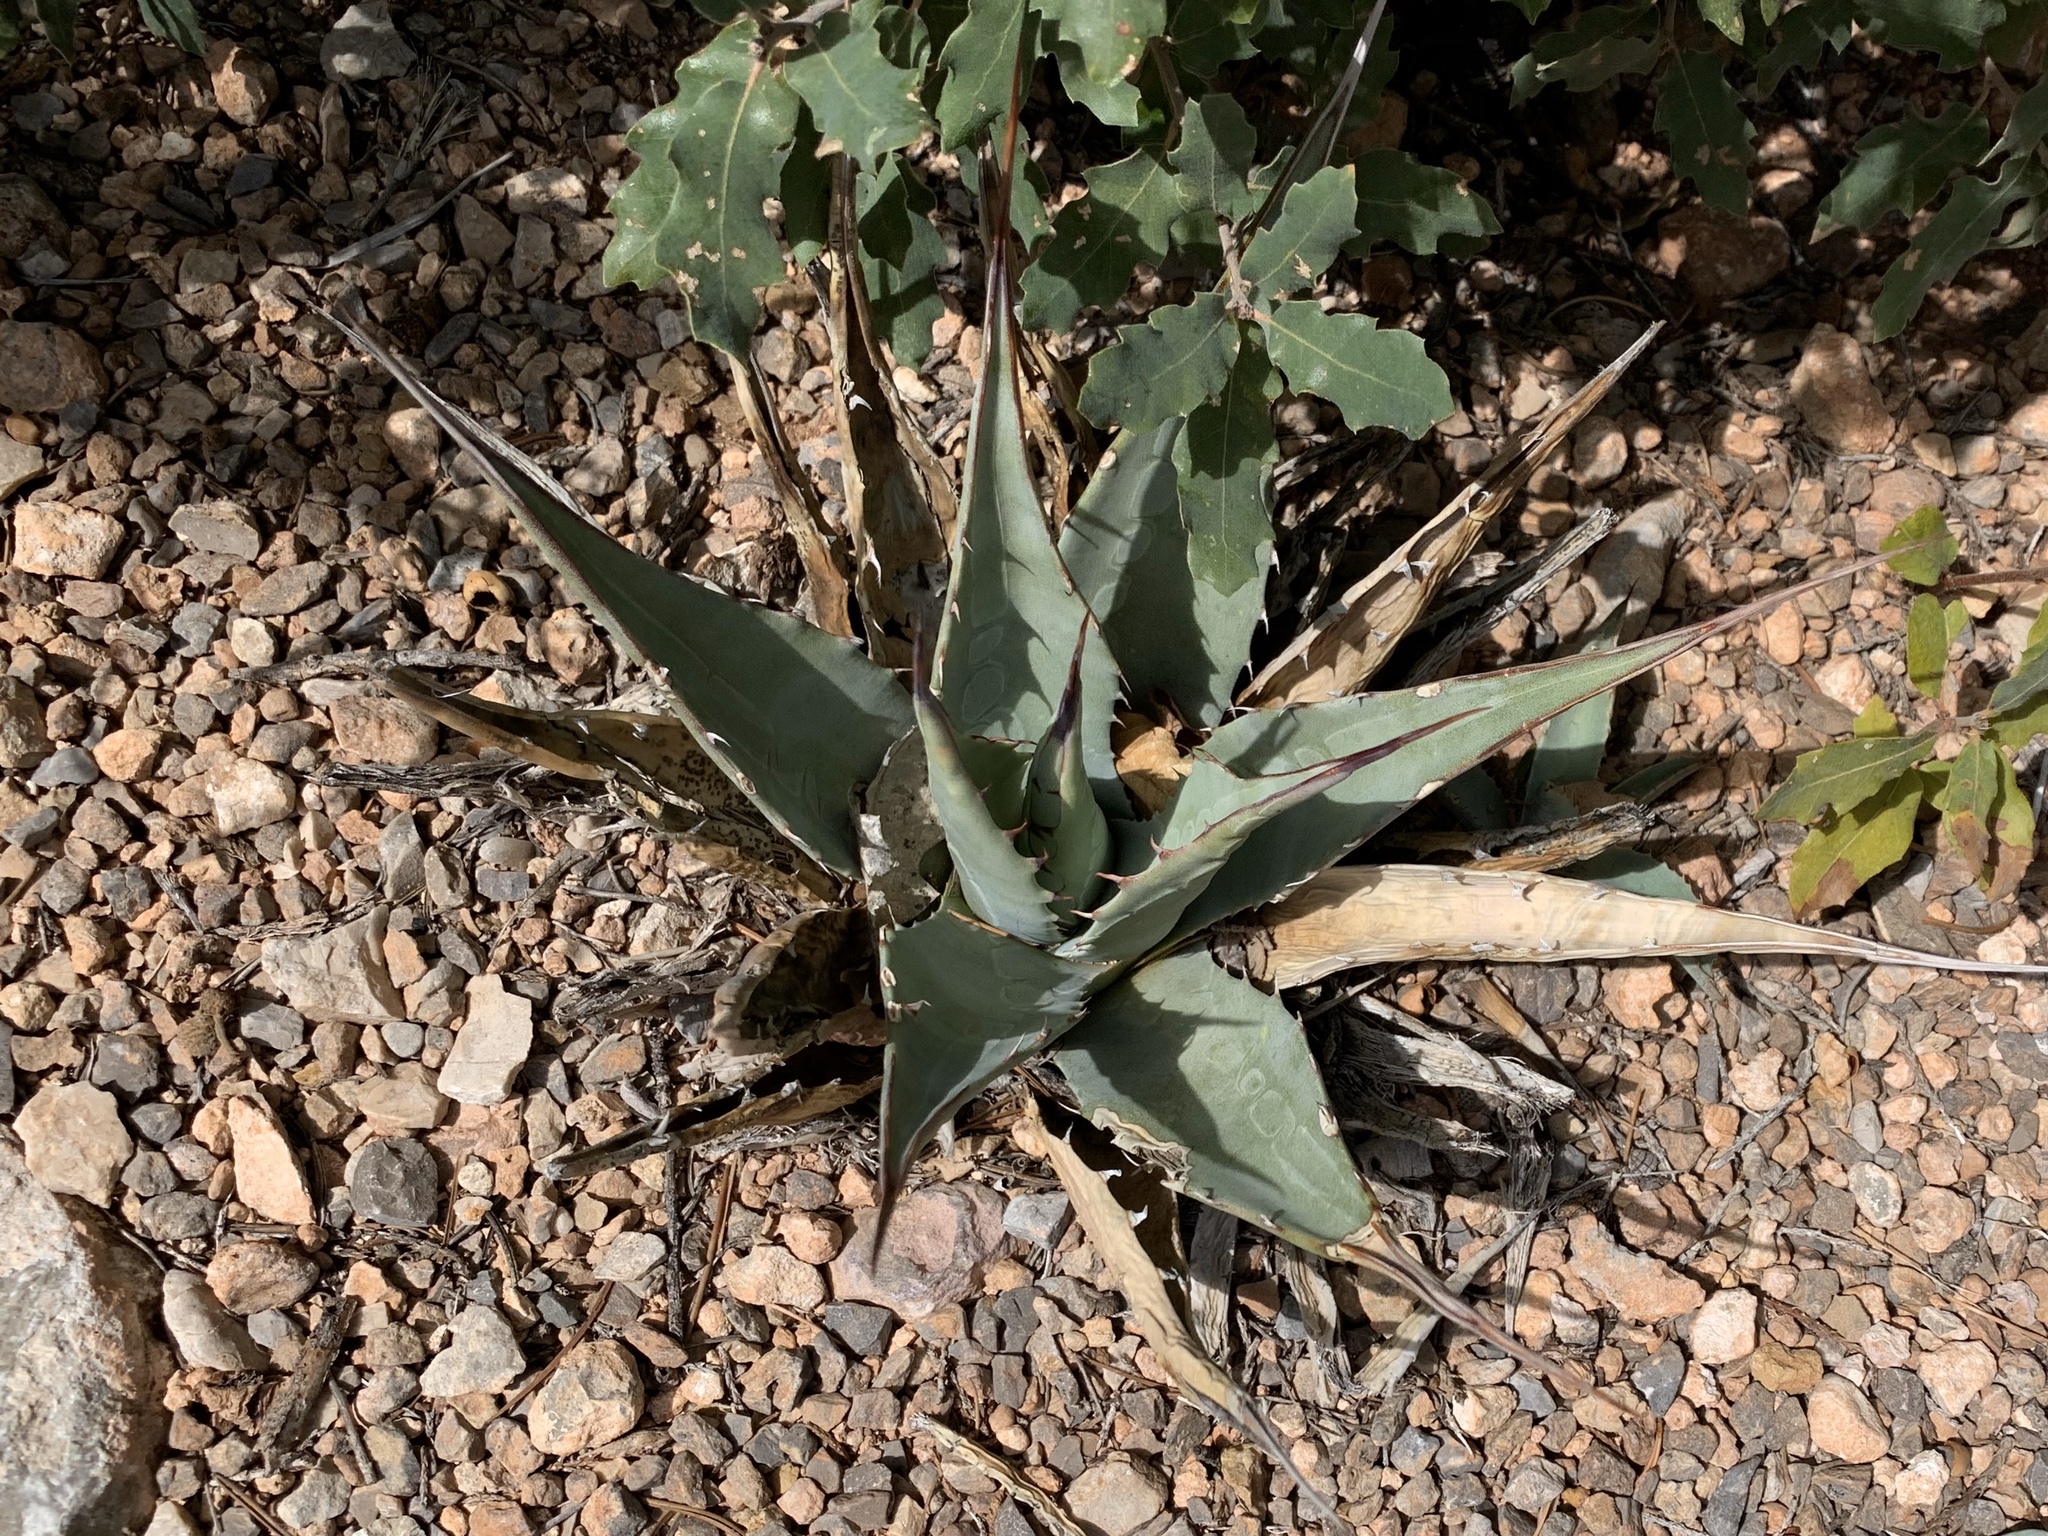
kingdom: Plantae
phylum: Tracheophyta
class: Liliopsida
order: Asparagales
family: Asparagaceae
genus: Agave
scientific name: Agave parryi
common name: Parry's agave
